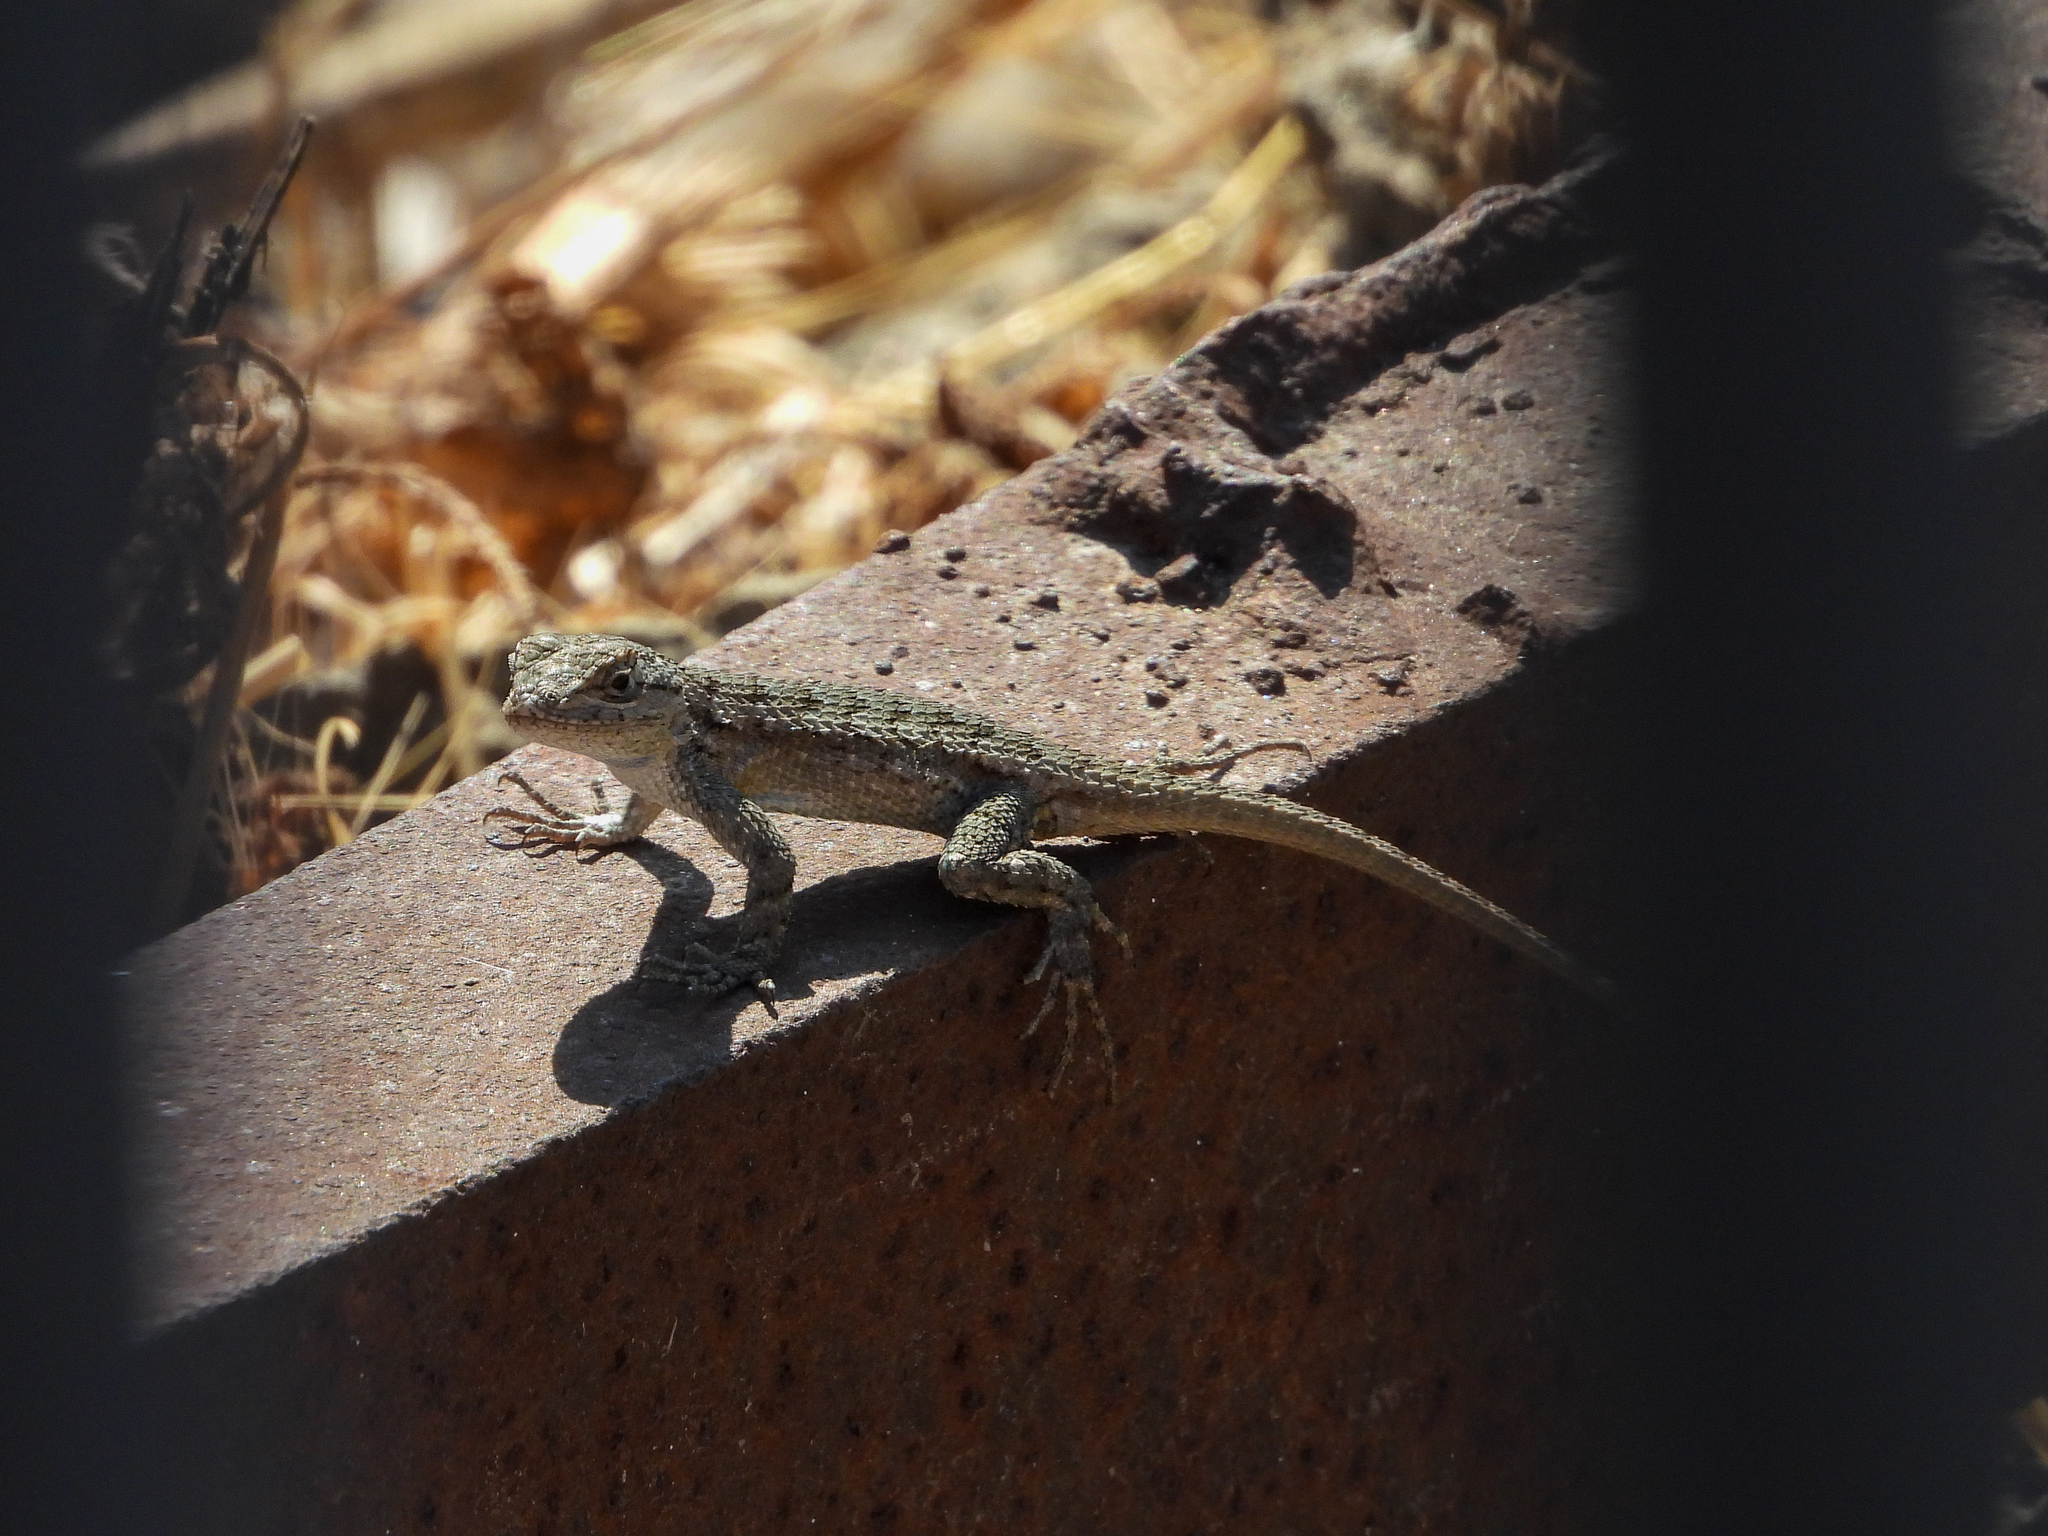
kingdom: Animalia
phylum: Chordata
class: Squamata
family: Phrynosomatidae
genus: Sceloporus
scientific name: Sceloporus occidentalis
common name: Western fence lizard
